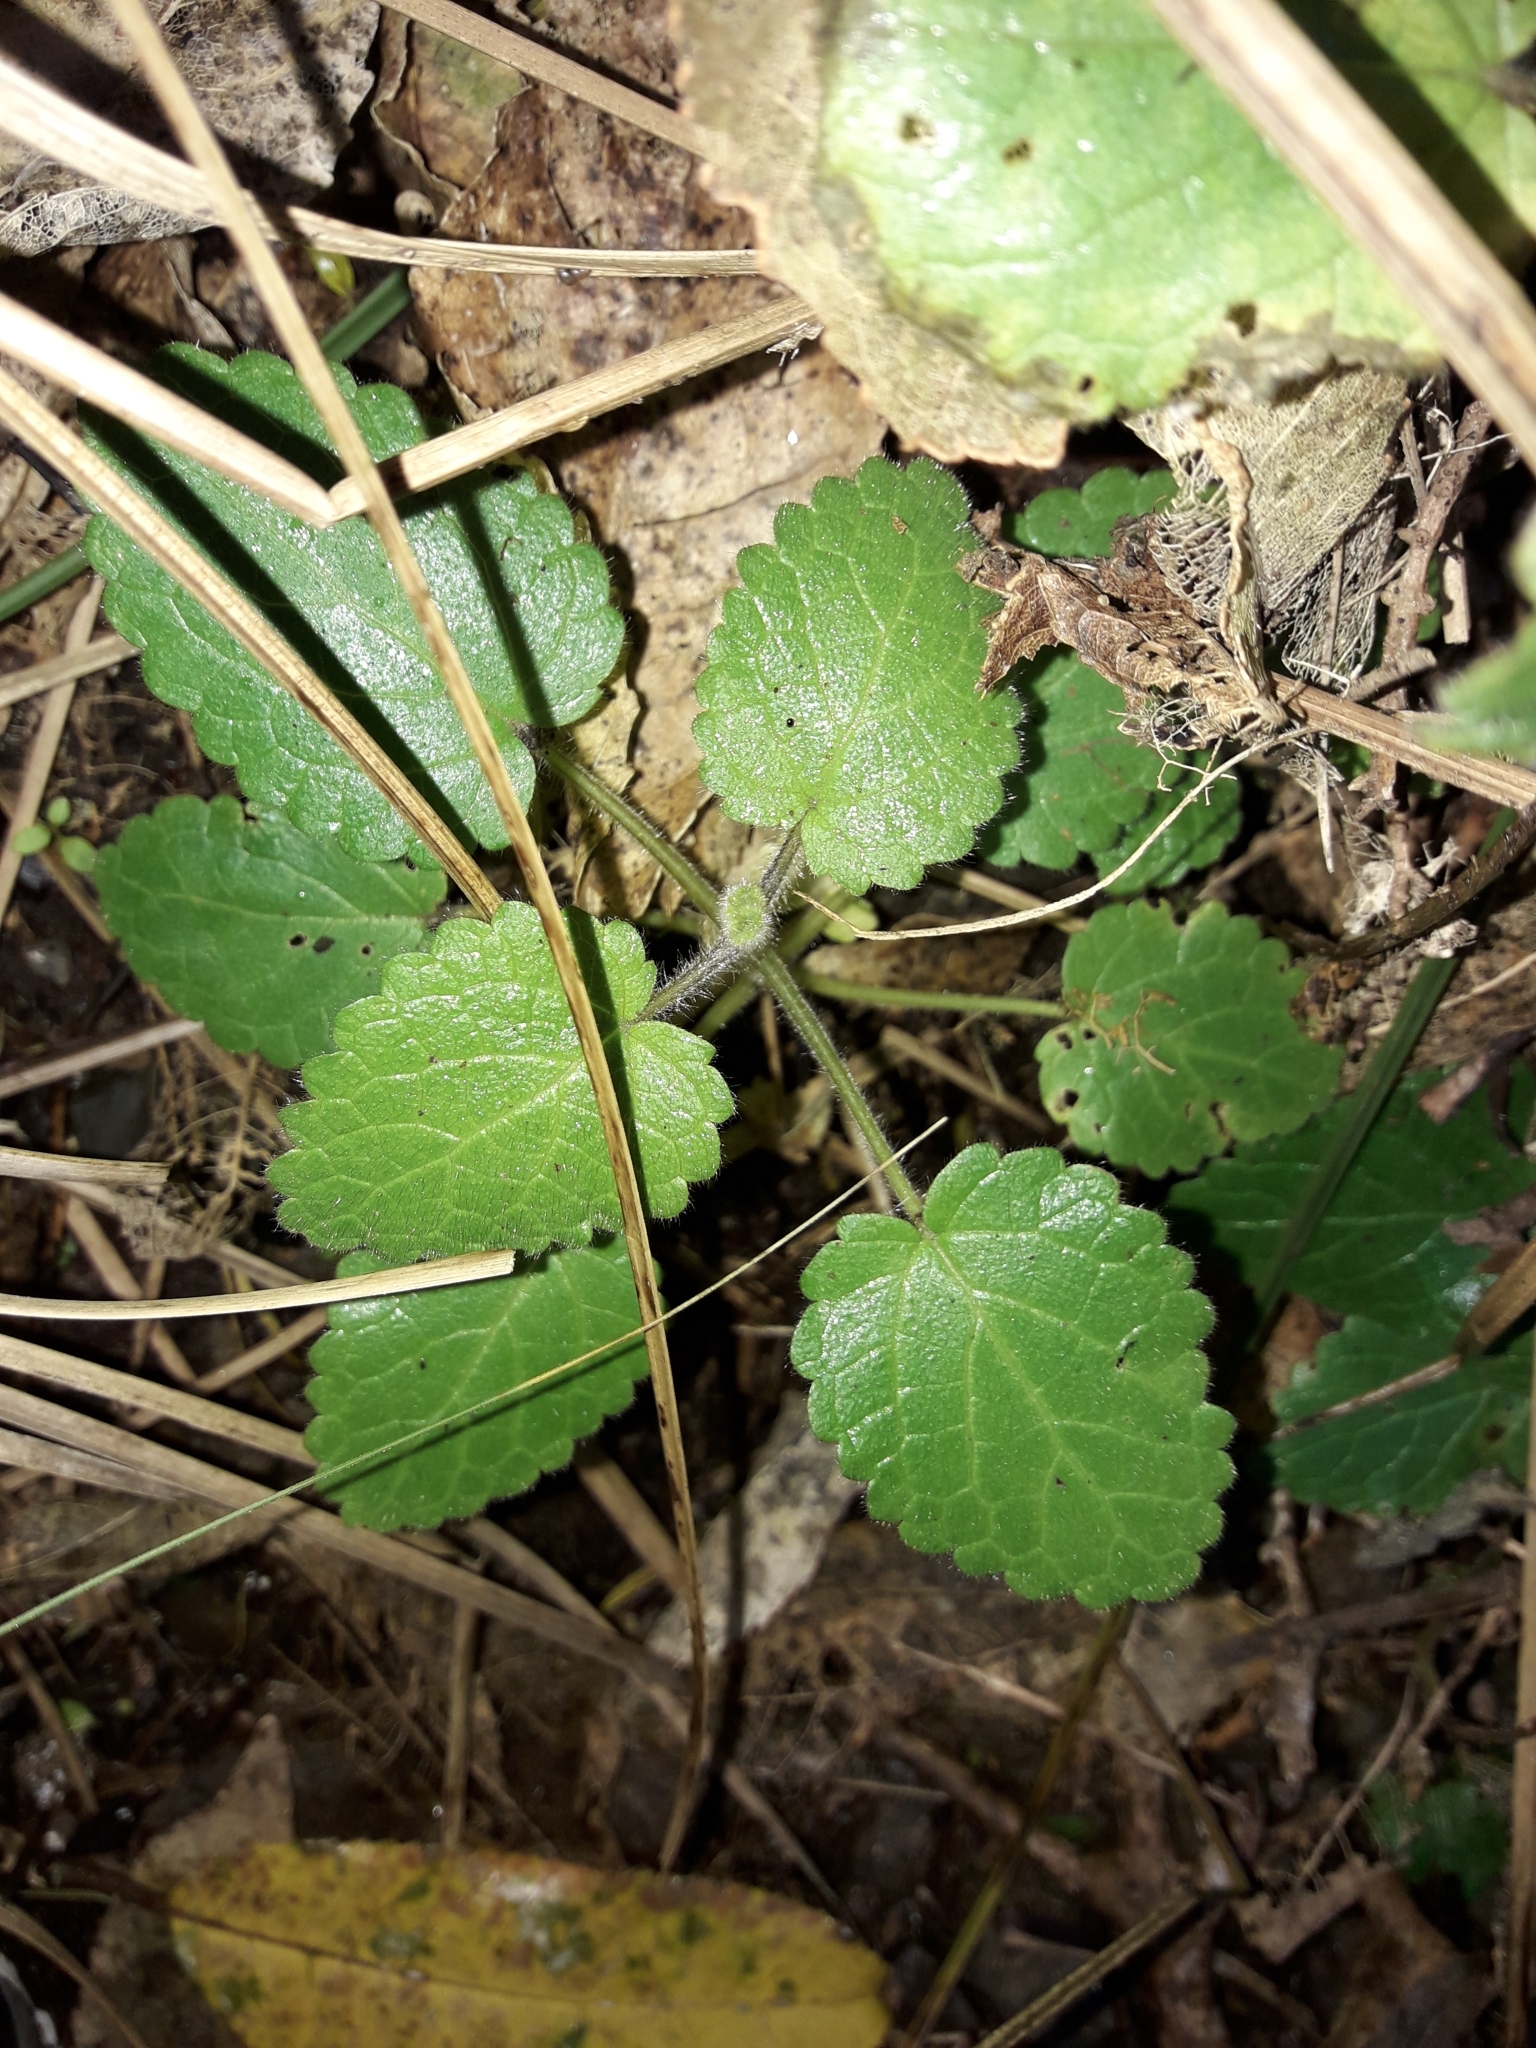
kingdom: Plantae
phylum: Tracheophyta
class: Magnoliopsida
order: Lamiales
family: Lamiaceae
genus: Stachys
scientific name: Stachys sylvatica
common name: Hedge woundwort
